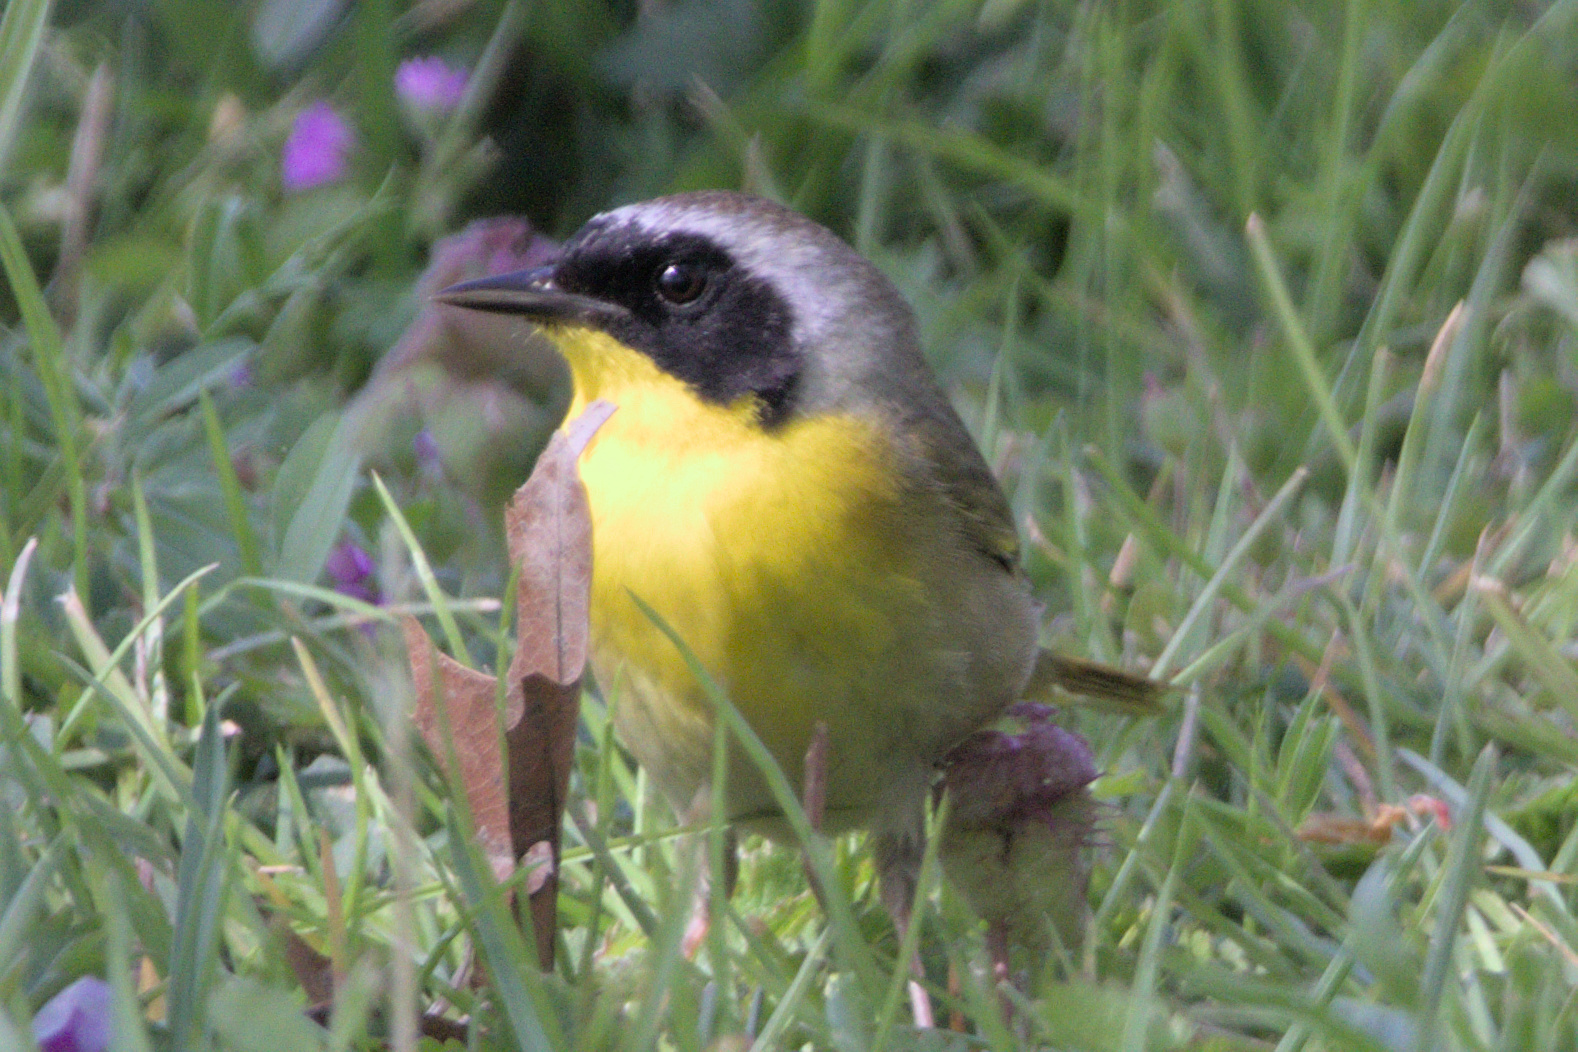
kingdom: Animalia
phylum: Chordata
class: Aves
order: Passeriformes
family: Parulidae
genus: Geothlypis
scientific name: Geothlypis trichas
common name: Common yellowthroat
